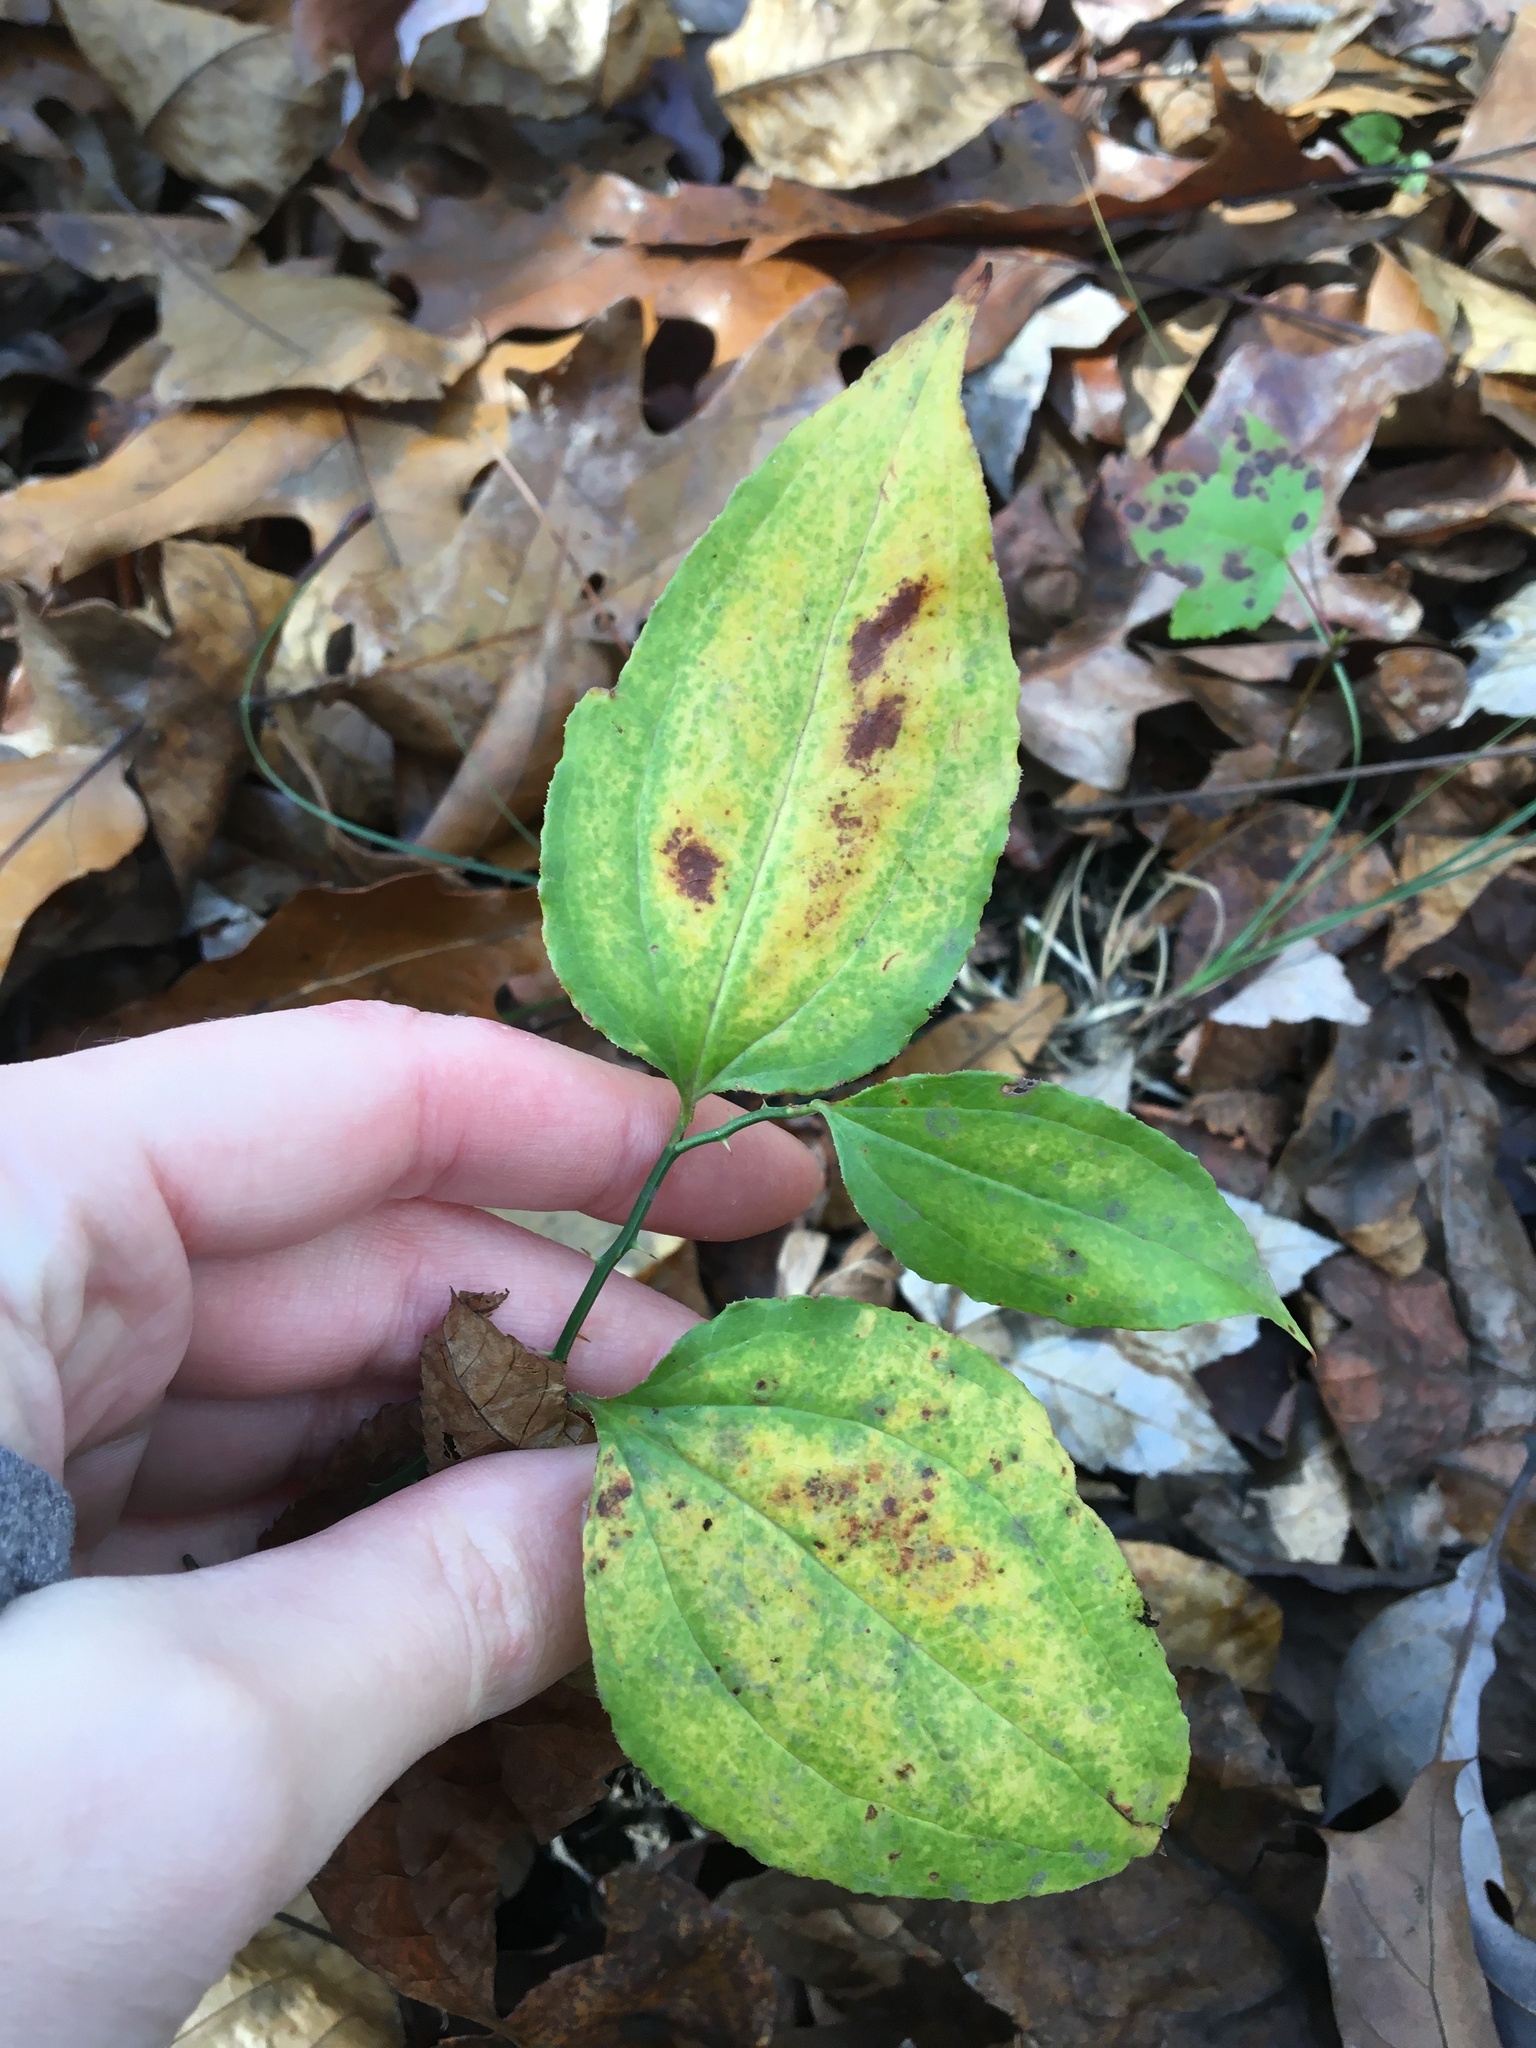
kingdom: Plantae
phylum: Tracheophyta
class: Liliopsida
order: Liliales
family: Smilacaceae
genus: Smilax
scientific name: Smilax tamnoides
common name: Hellfetter
